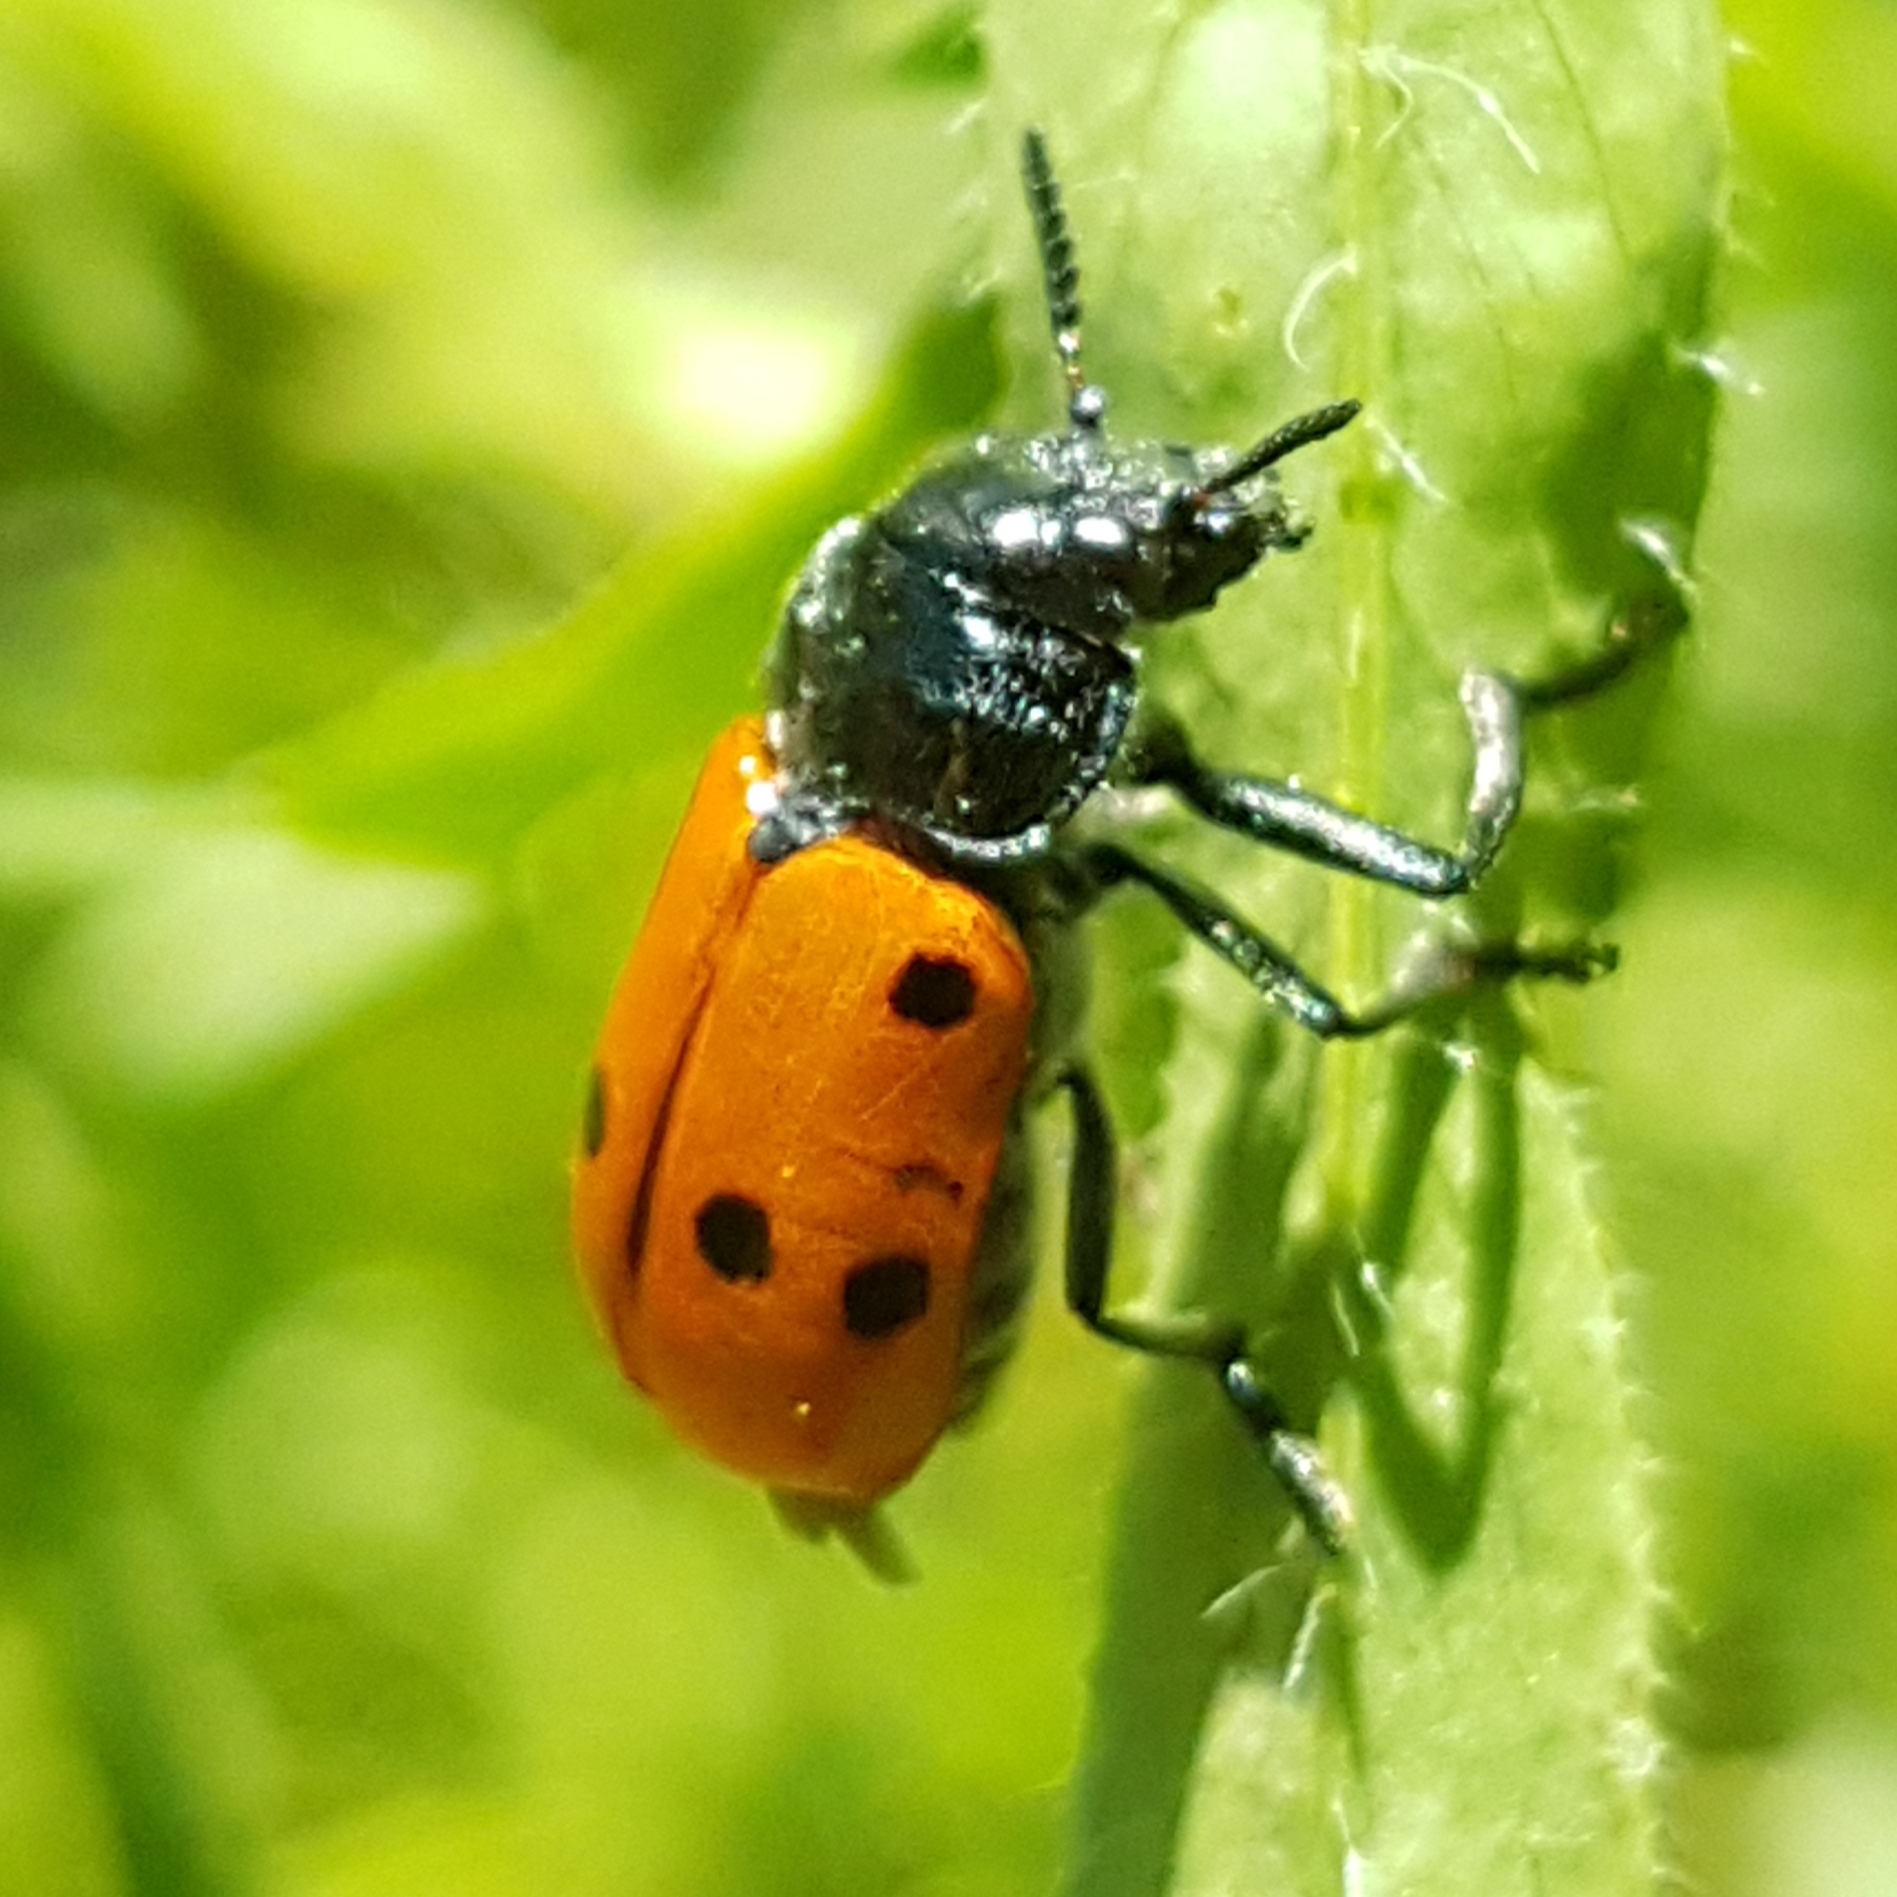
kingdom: Animalia
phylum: Arthropoda
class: Insecta
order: Coleoptera
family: Chrysomelidae
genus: Lachnaia
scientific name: Lachnaia paradoxa
